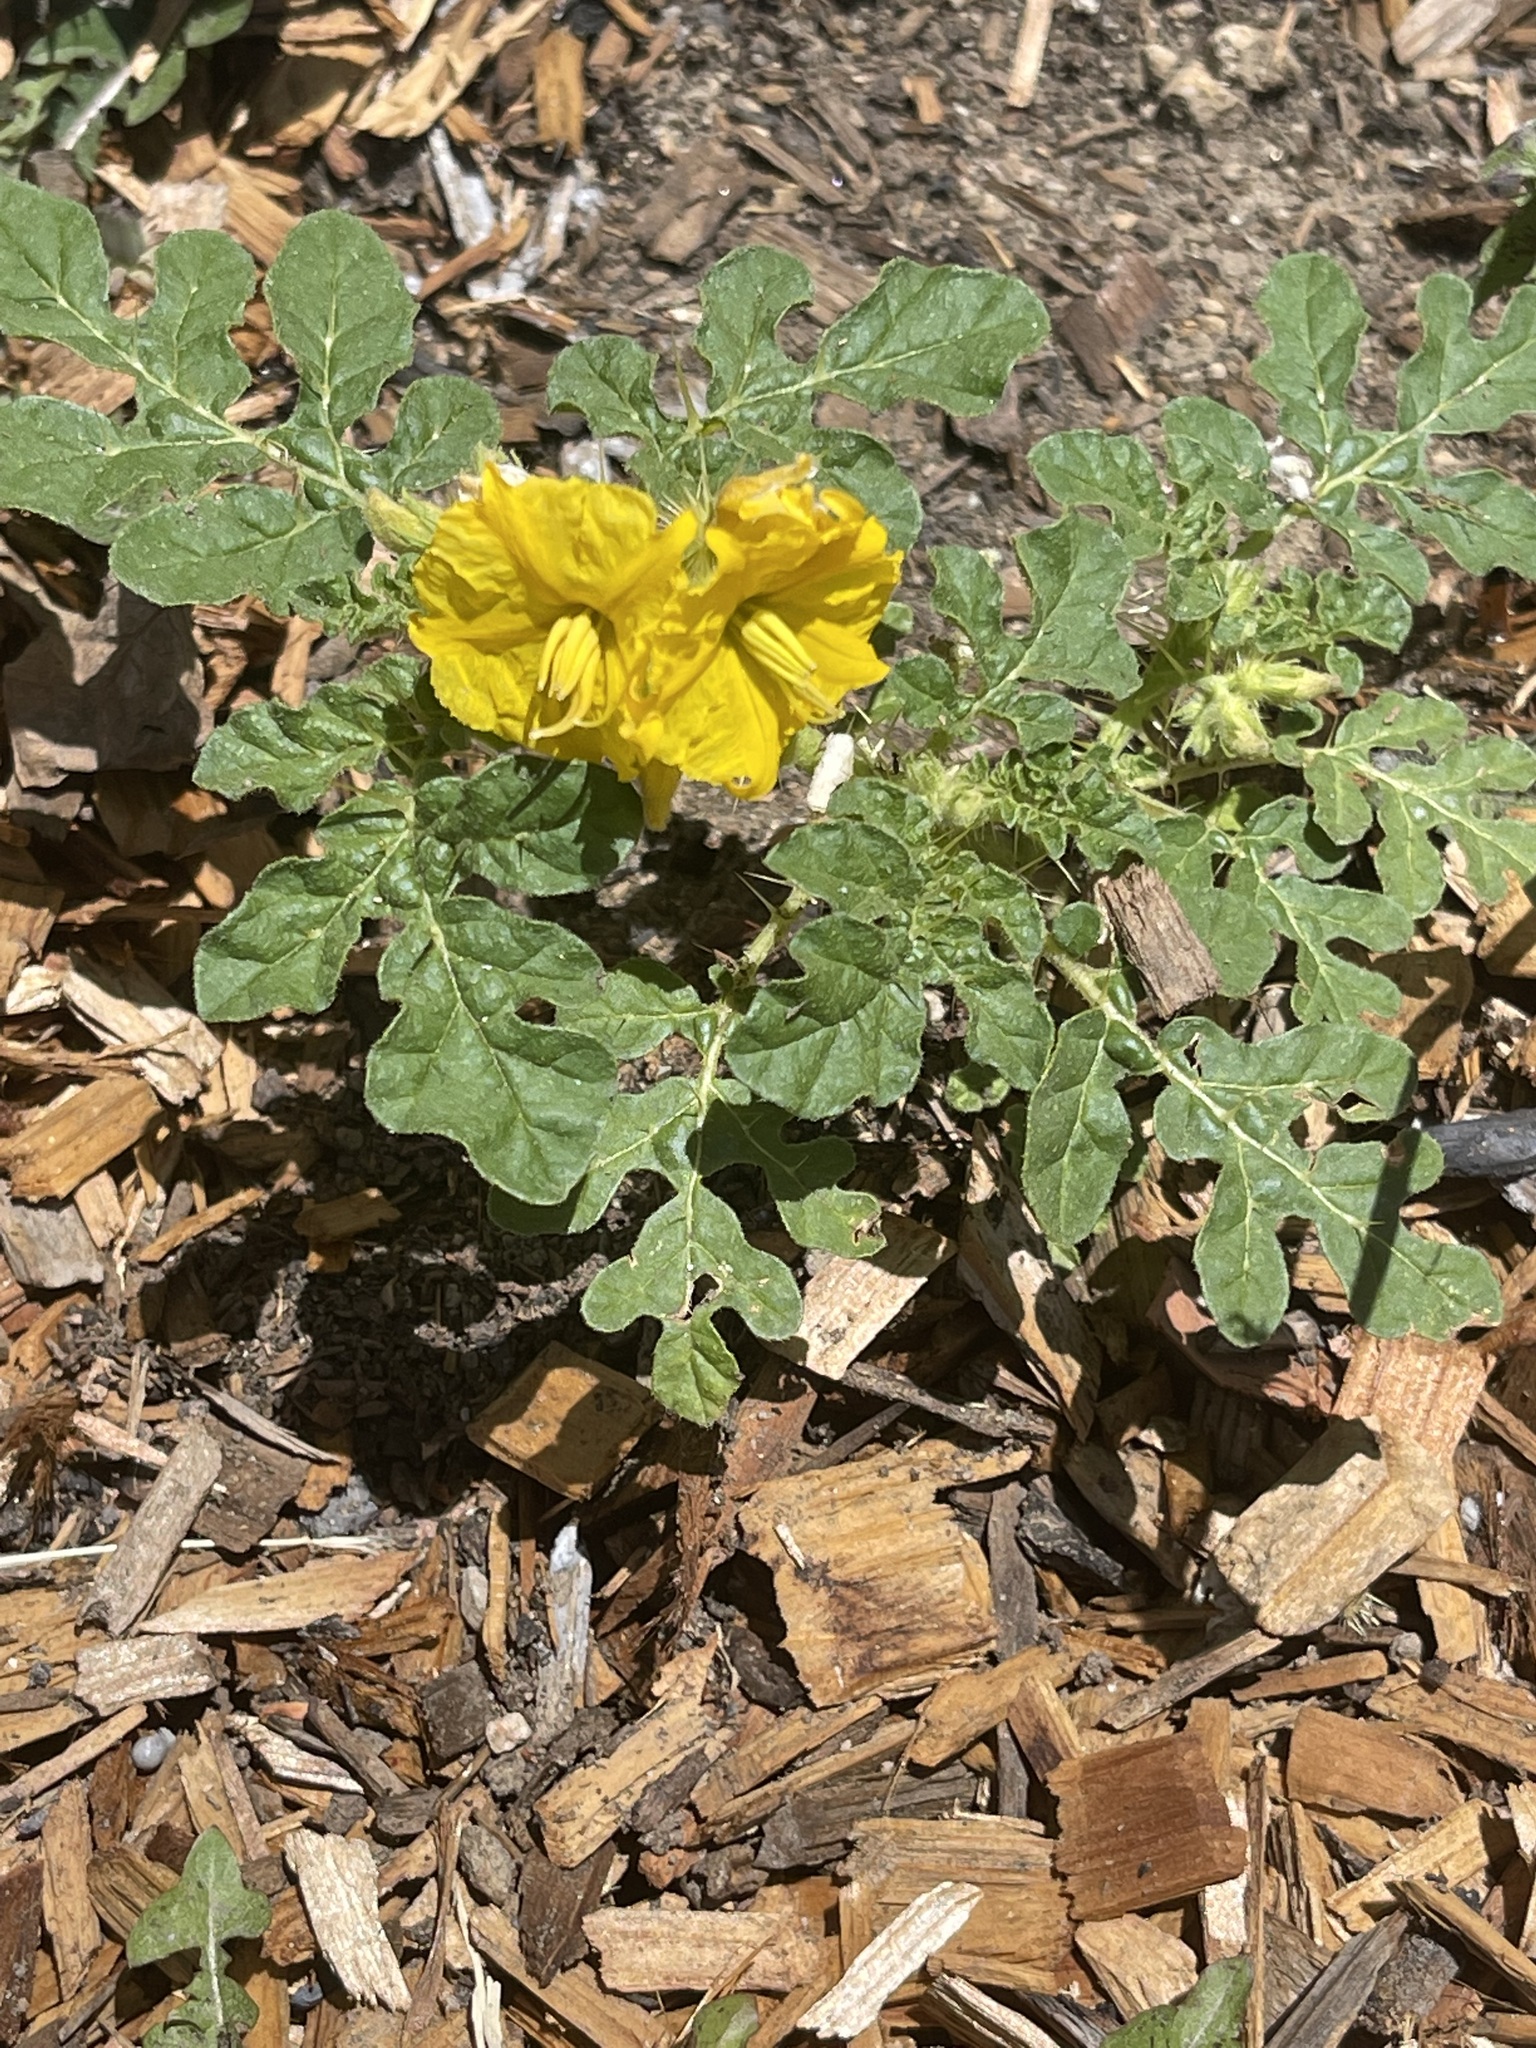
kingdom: Plantae
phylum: Tracheophyta
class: Magnoliopsida
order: Solanales
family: Solanaceae
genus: Solanum
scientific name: Solanum angustifolium
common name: Buffalobur nightshade
